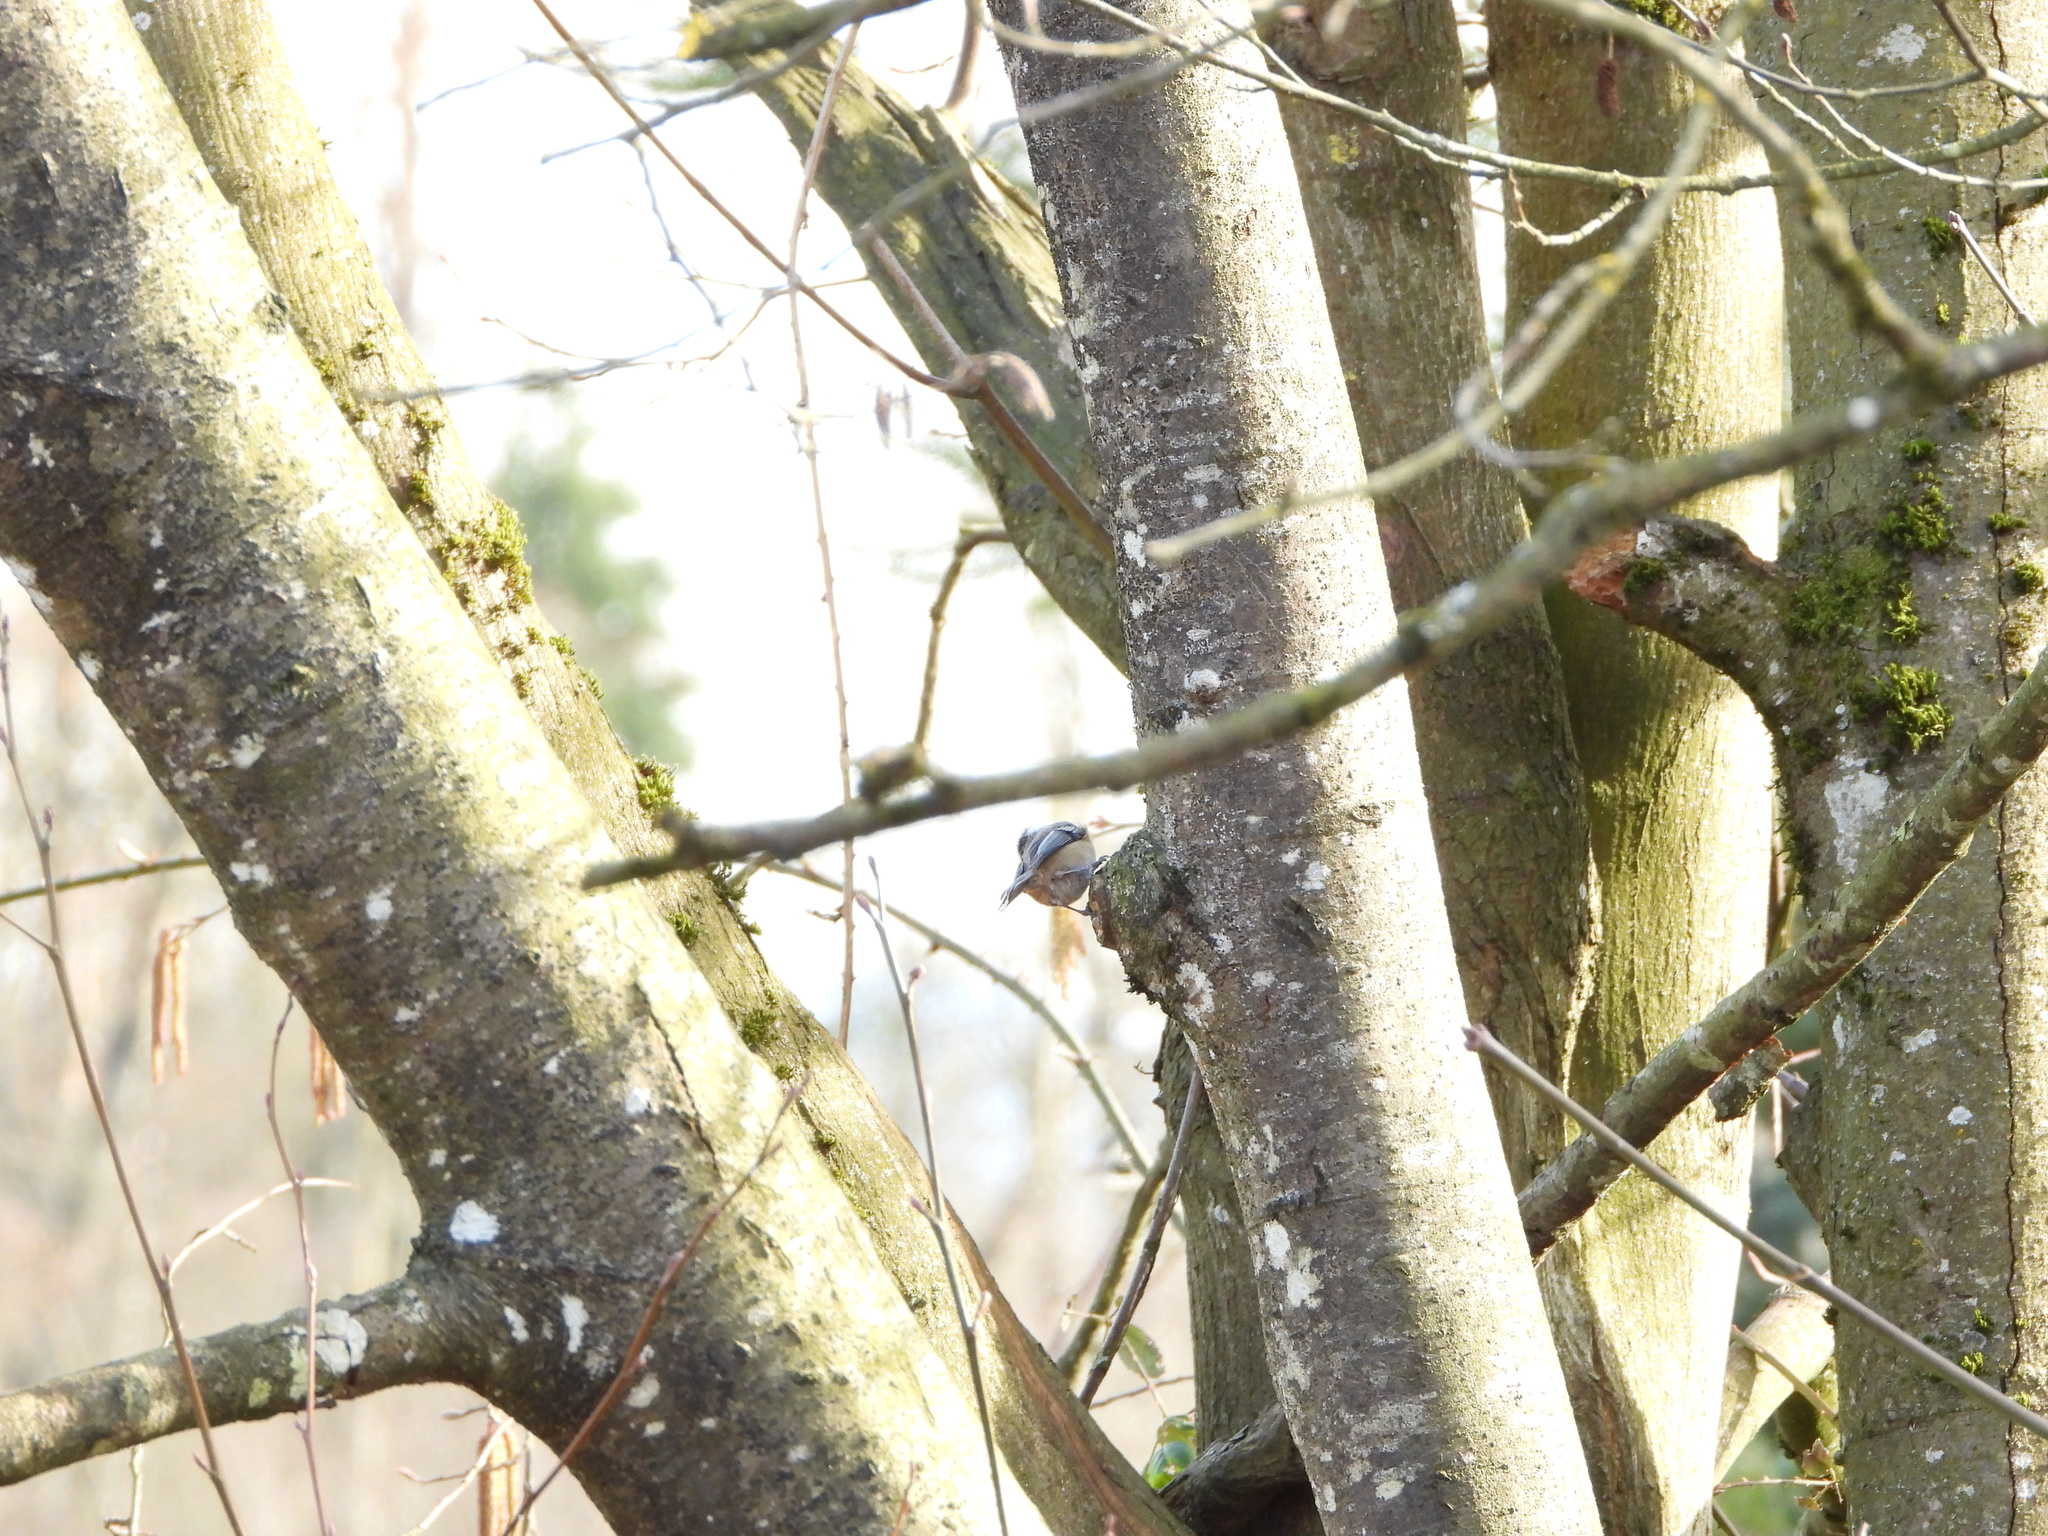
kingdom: Animalia
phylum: Chordata
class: Aves
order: Passeriformes
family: Paridae
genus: Poecile
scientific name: Poecile atricapillus
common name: Black-capped chickadee
